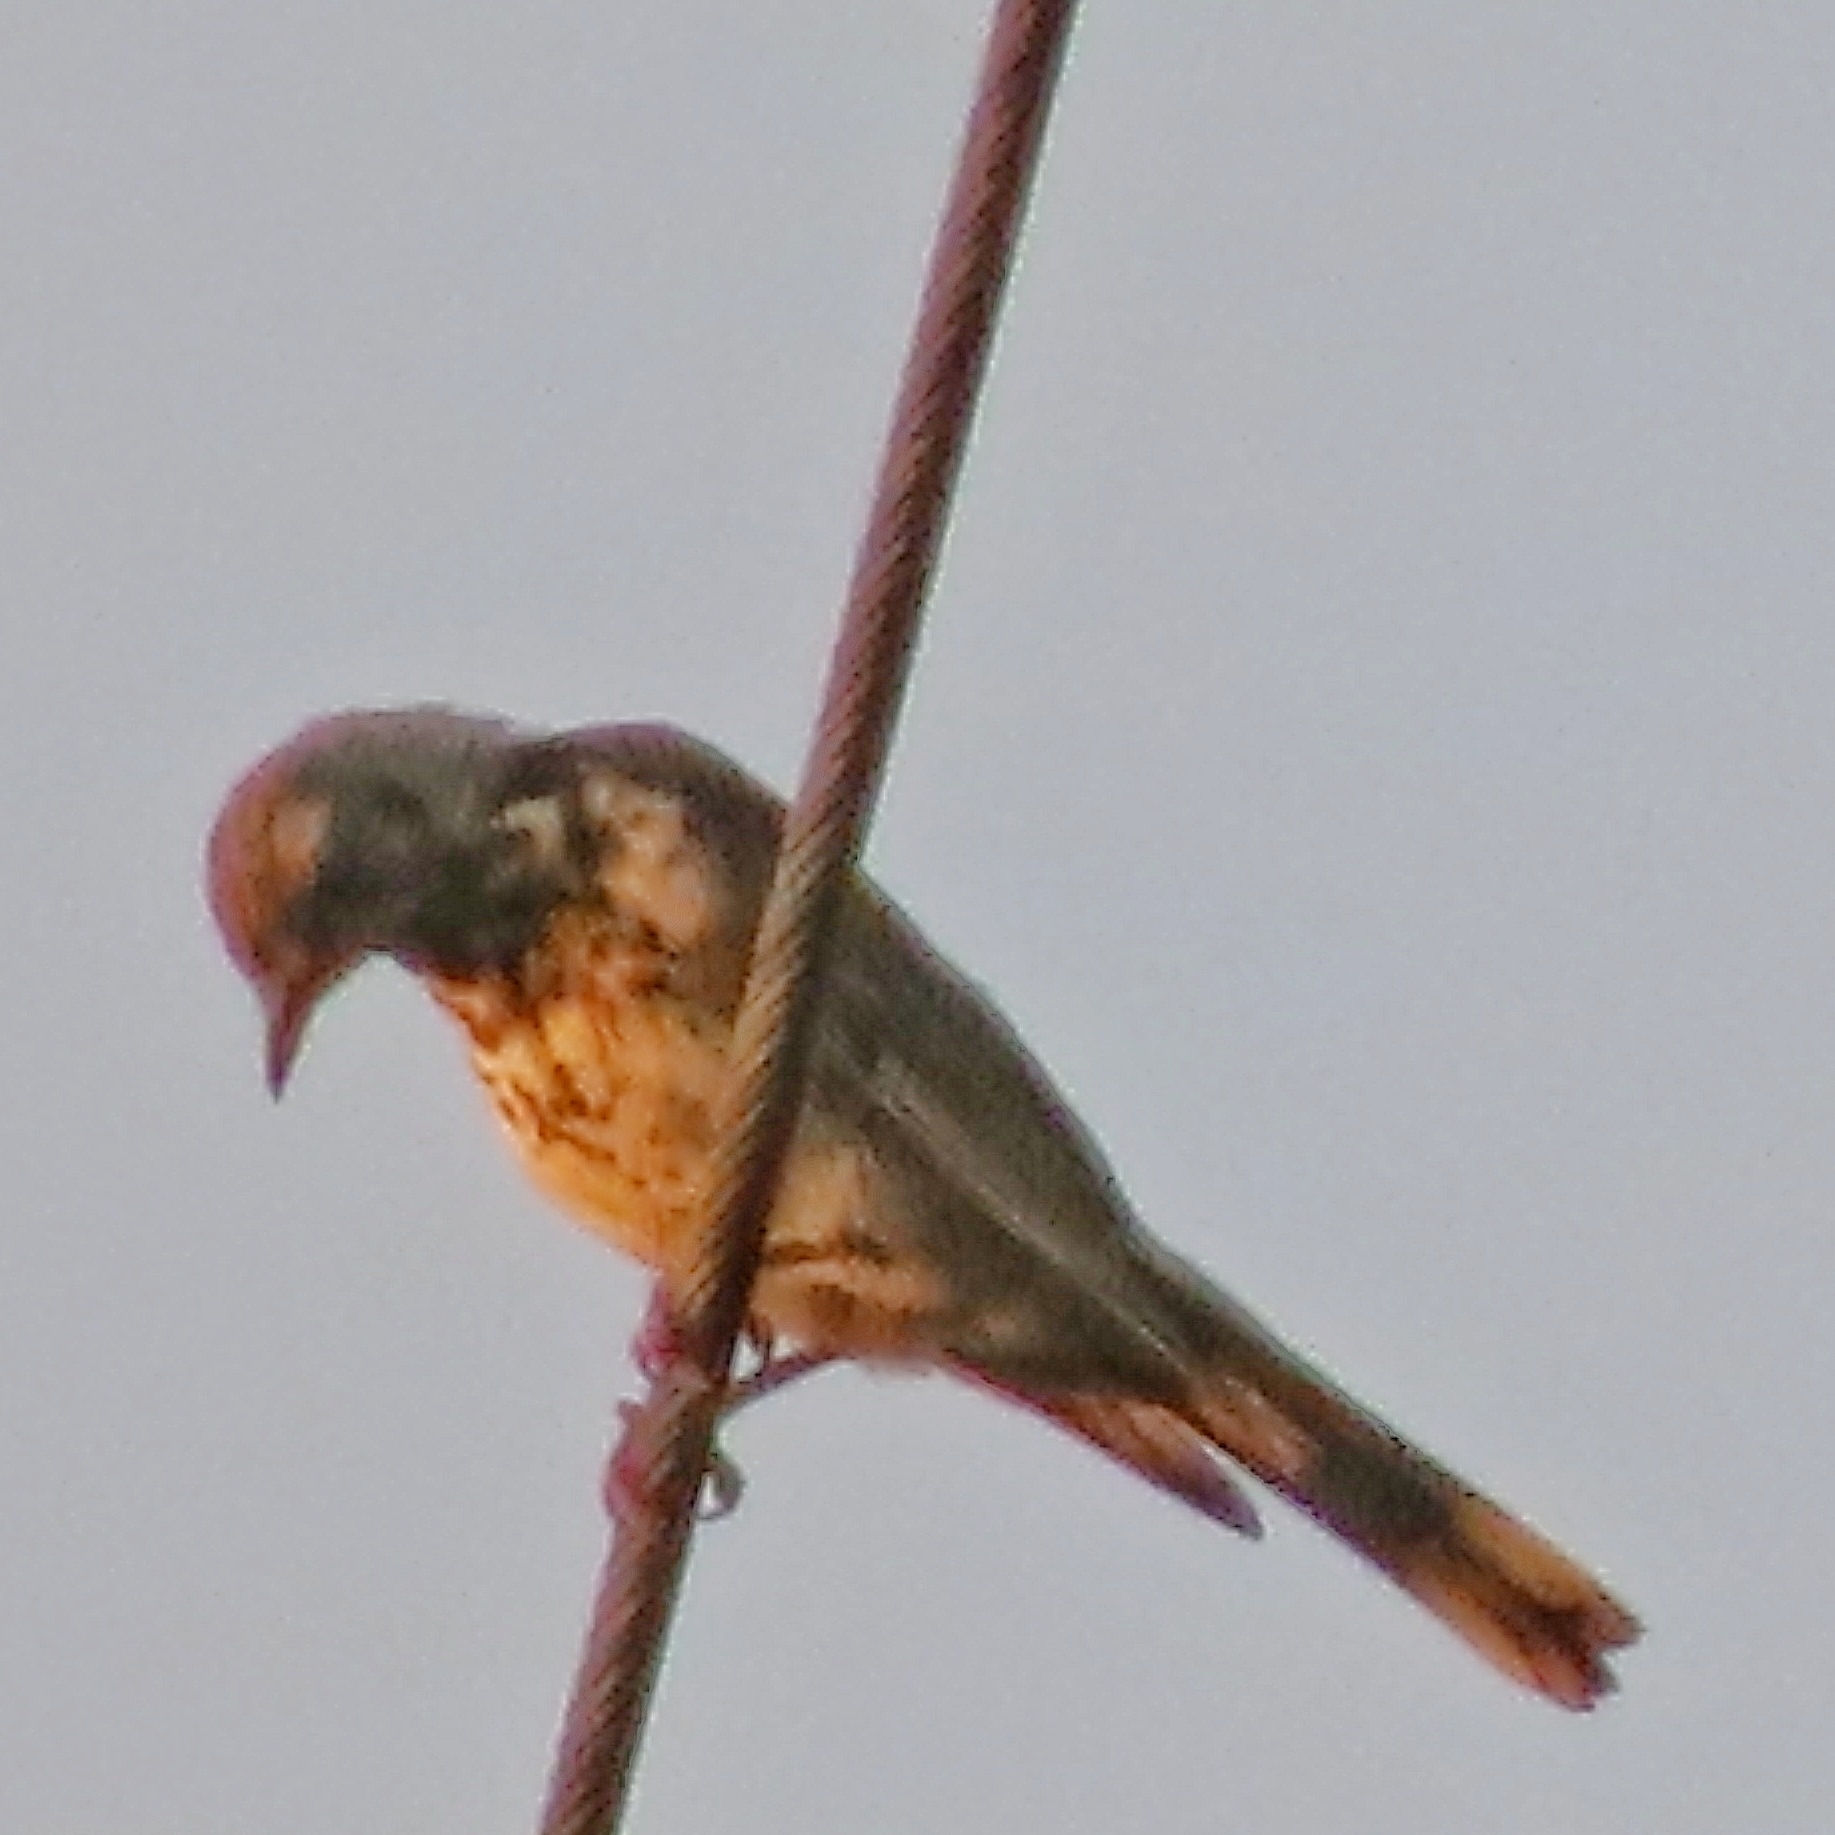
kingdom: Animalia
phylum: Chordata
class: Aves
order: Passeriformes
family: Turdidae
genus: Turdus
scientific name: Turdus pilaris
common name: Fieldfare
